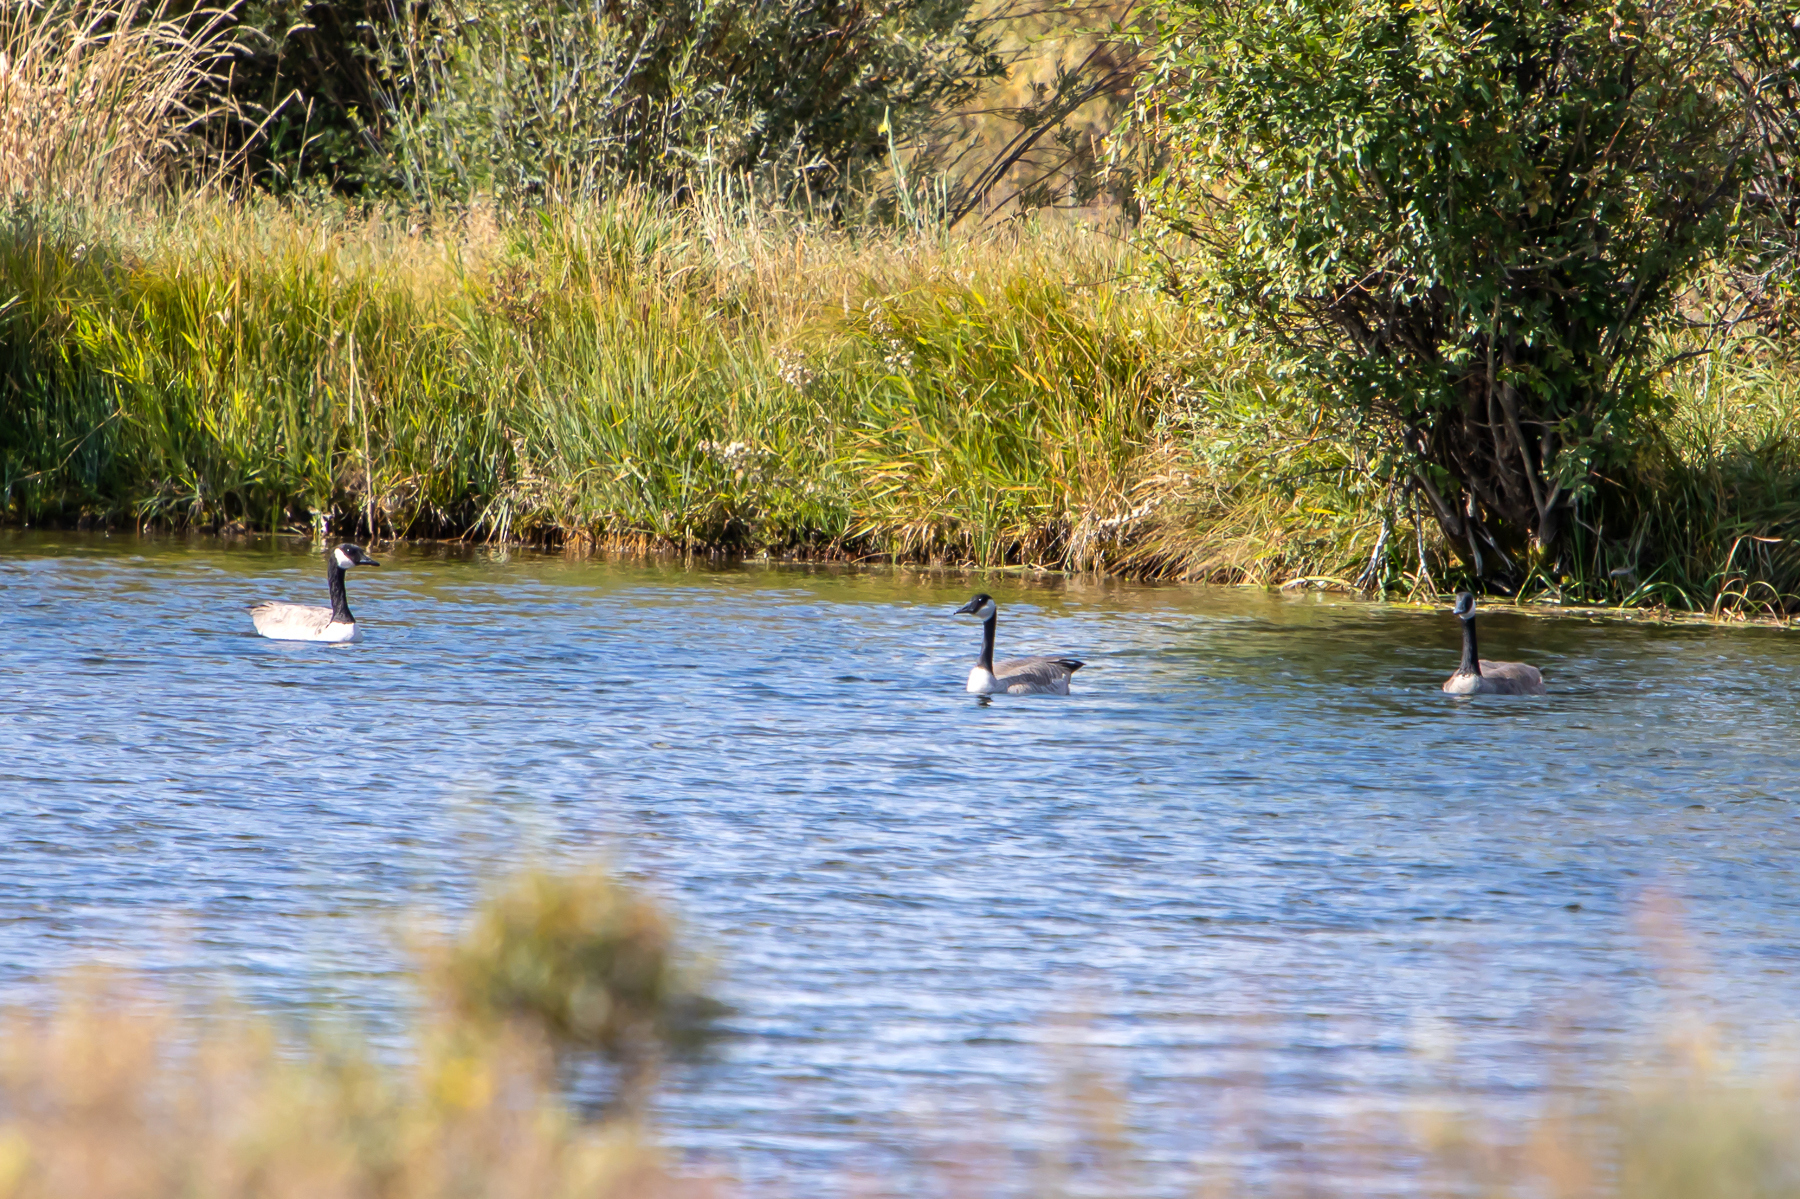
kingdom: Animalia
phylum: Chordata
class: Aves
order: Anseriformes
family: Anatidae
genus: Branta
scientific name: Branta canadensis
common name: Canada goose
